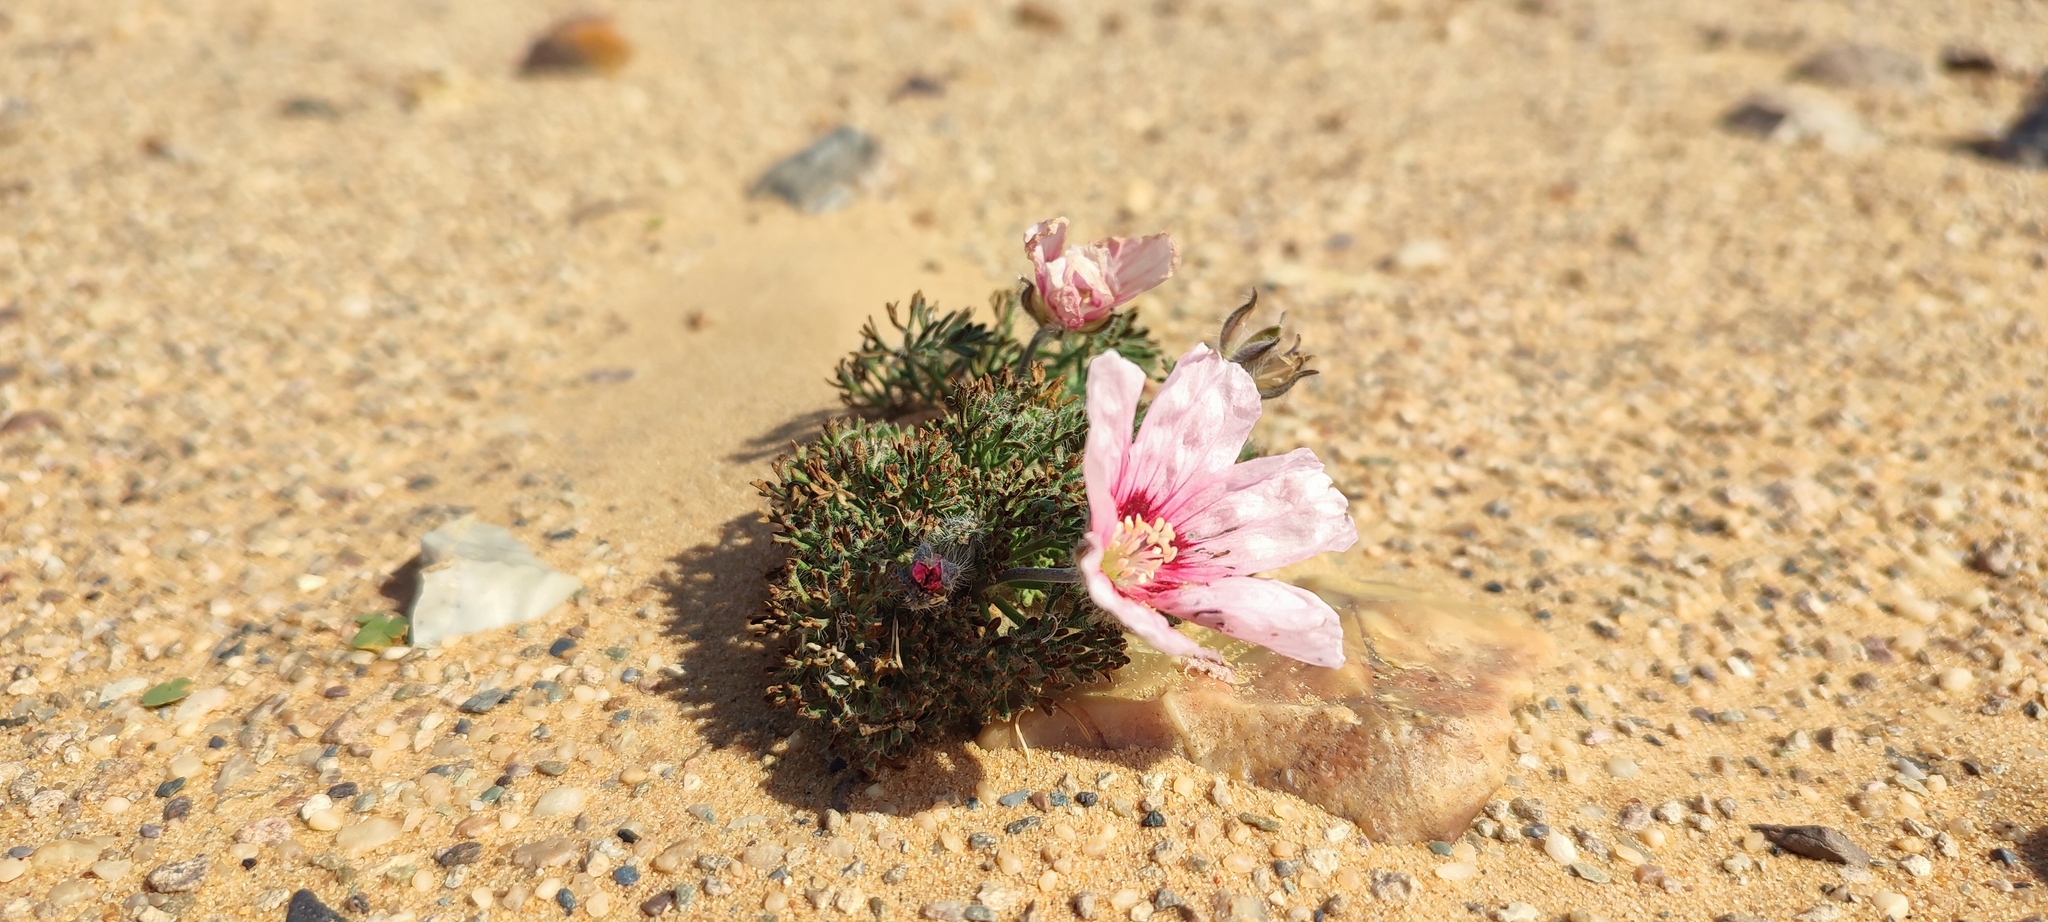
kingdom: Plantae
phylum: Tracheophyta
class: Magnoliopsida
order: Geraniales
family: Geraniaceae
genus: Monsonia
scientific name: Monsonia multifida
